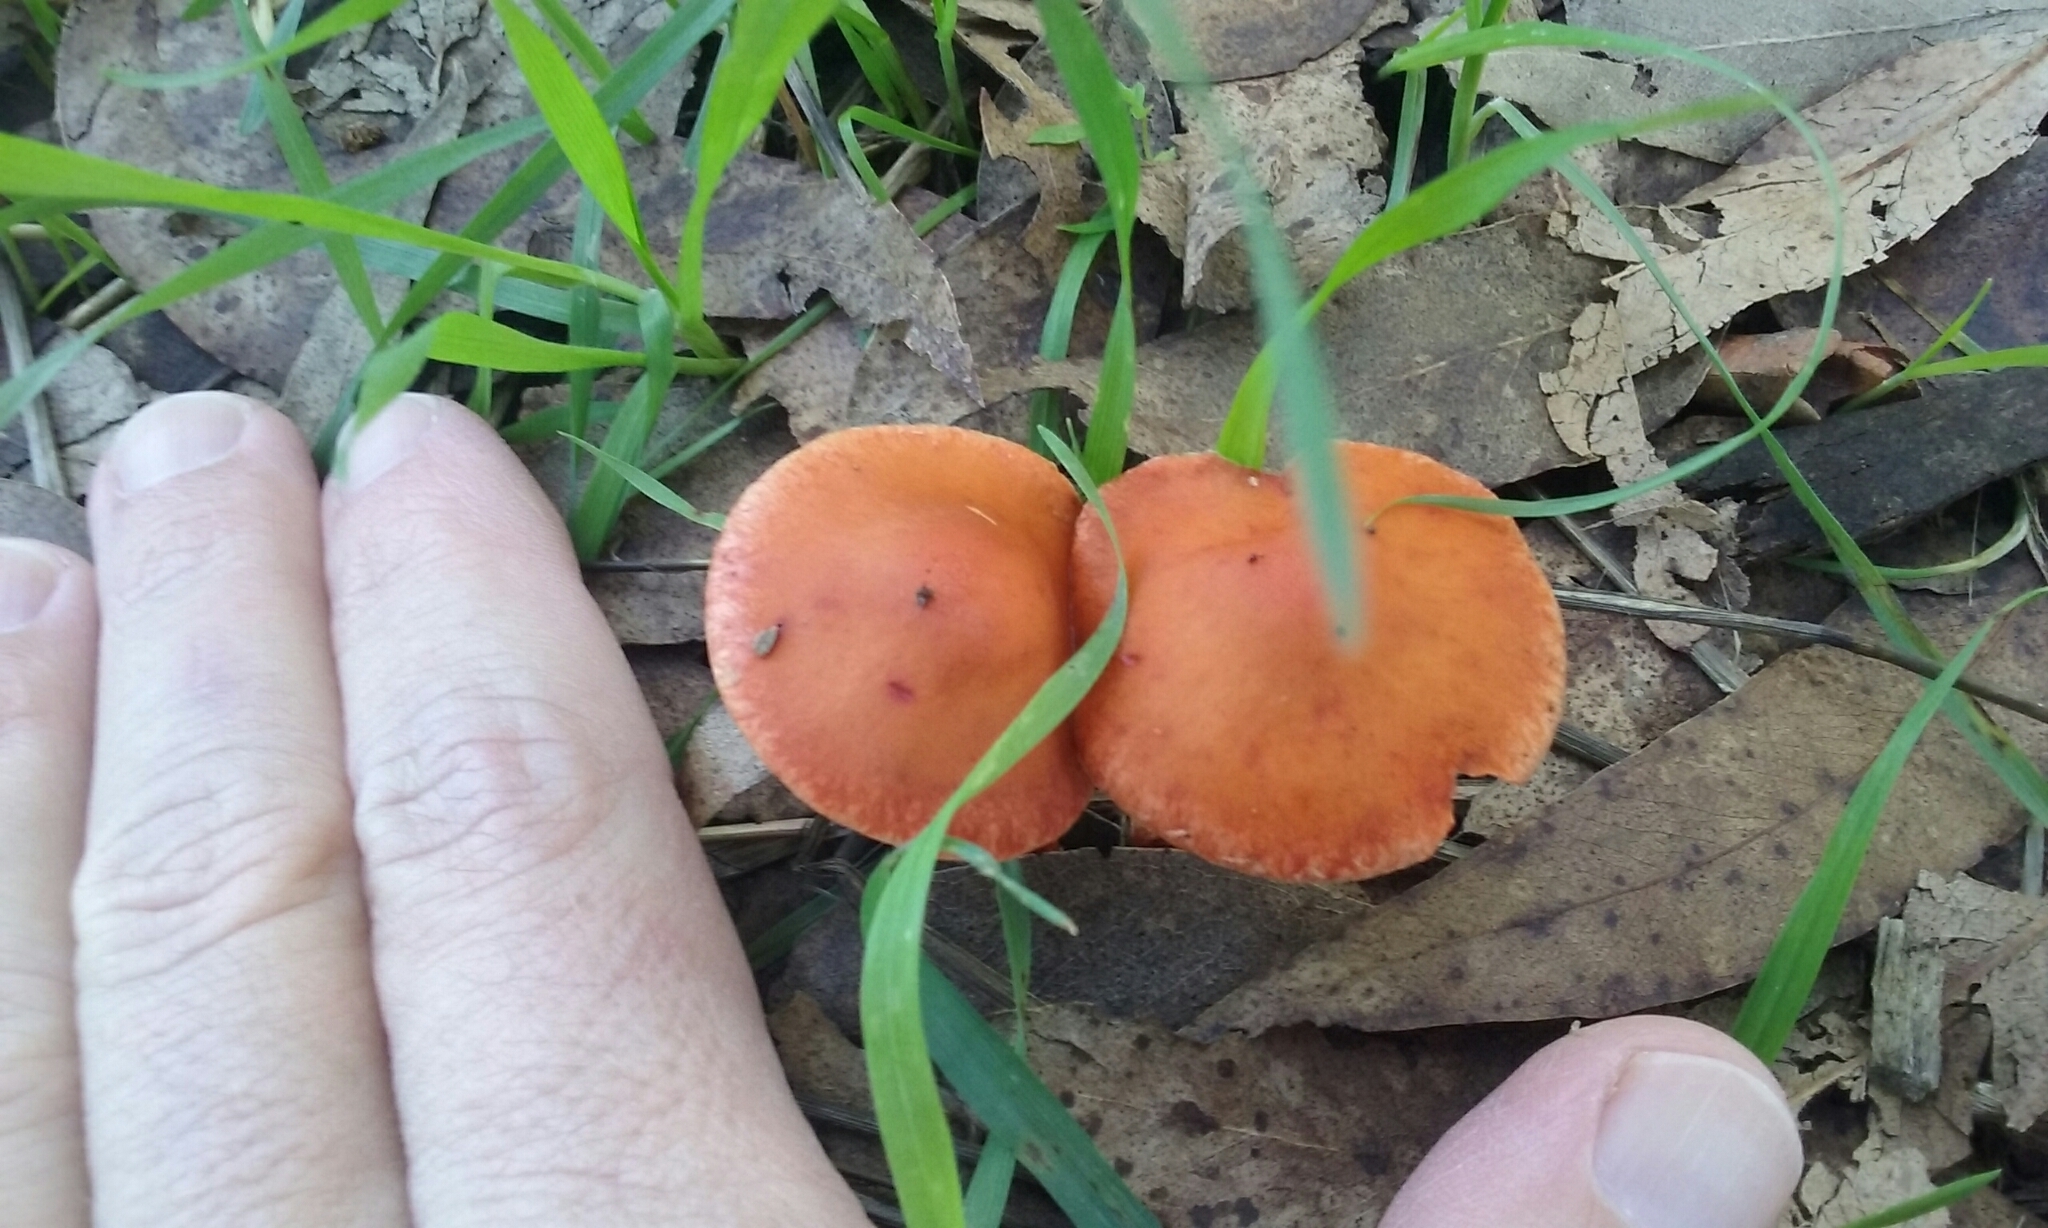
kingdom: Fungi
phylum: Basidiomycota
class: Agaricomycetes
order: Agaricales
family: Strophariaceae
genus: Leratiomyces
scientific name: Leratiomyces ceres
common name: Redlead roundhead
